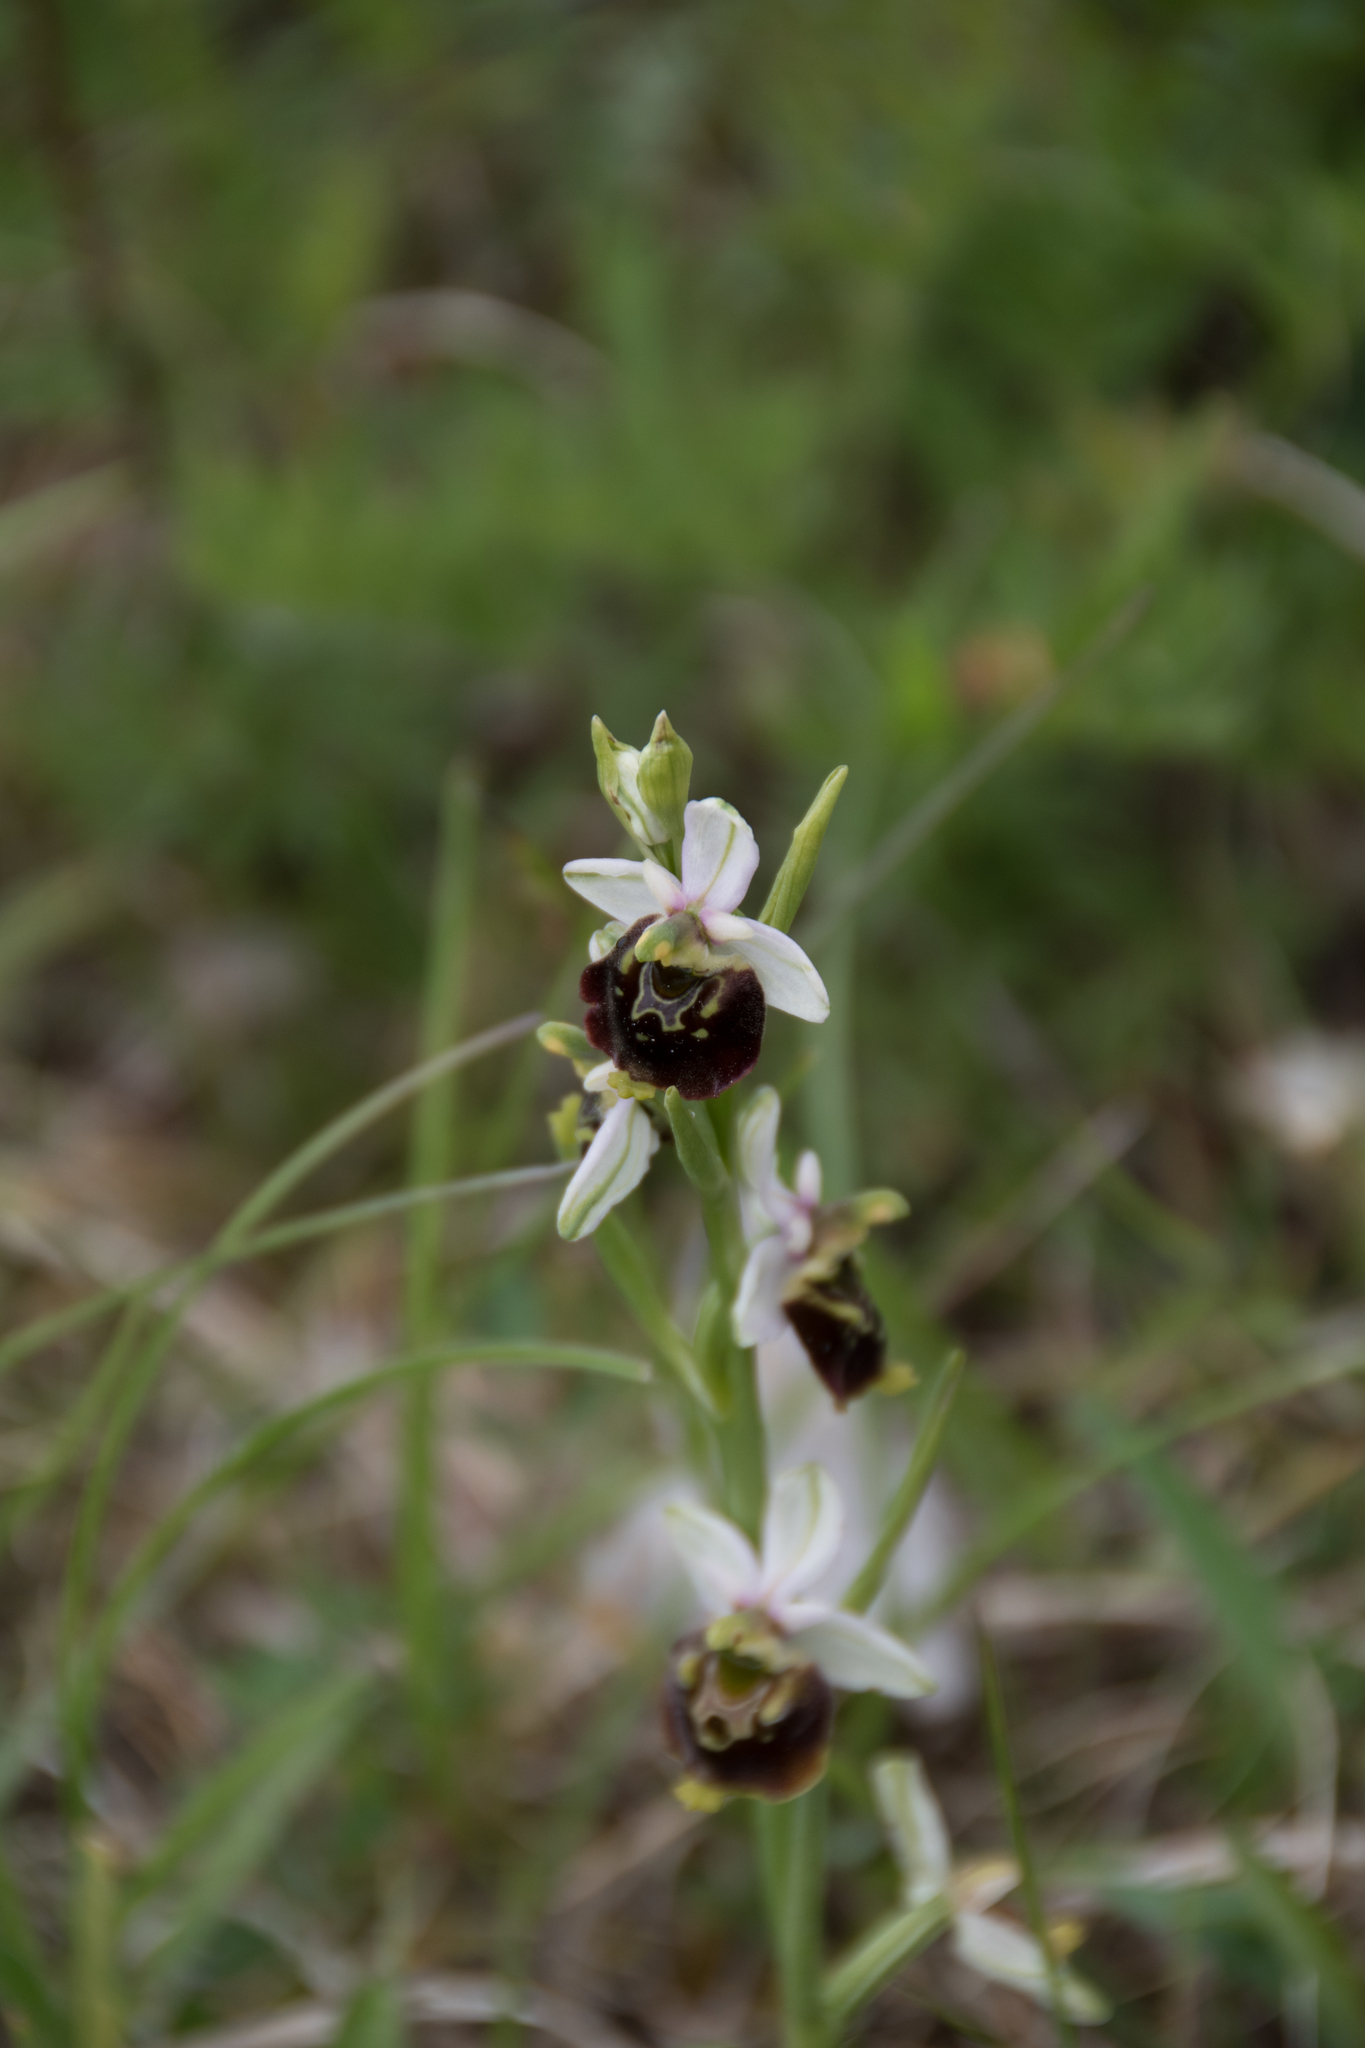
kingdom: Plantae
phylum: Tracheophyta
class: Liliopsida
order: Asparagales
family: Orchidaceae
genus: Ophrys
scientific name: Ophrys holosericea
